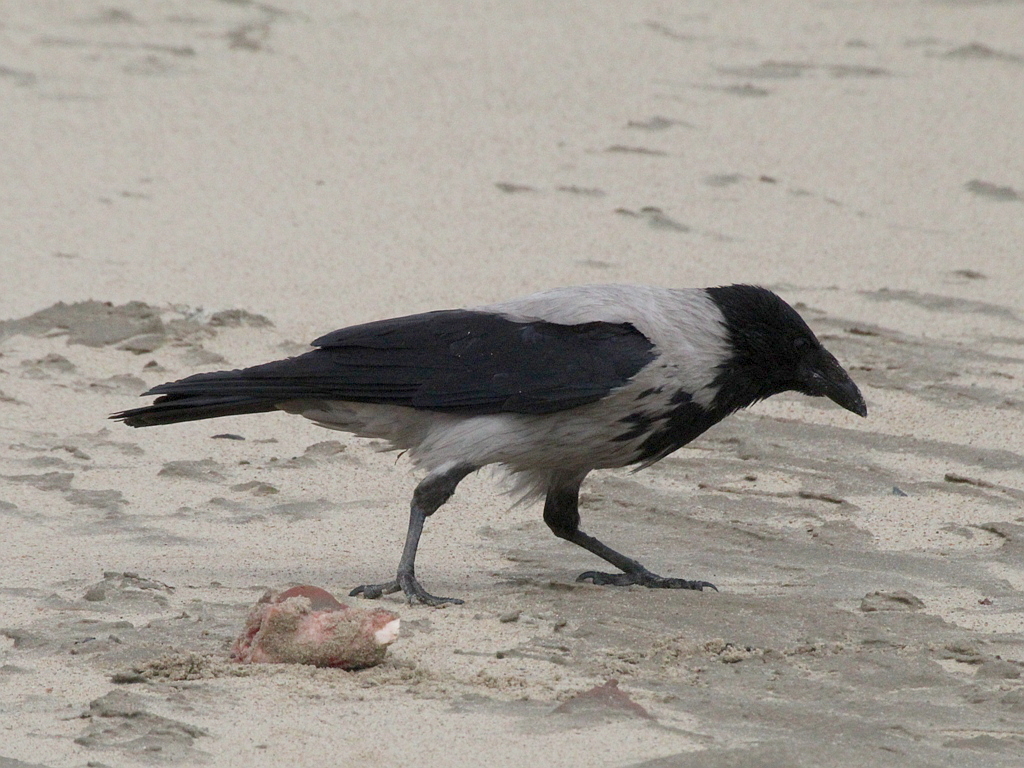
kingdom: Animalia
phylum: Chordata
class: Aves
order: Passeriformes
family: Corvidae
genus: Corvus
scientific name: Corvus cornix
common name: Hooded crow
